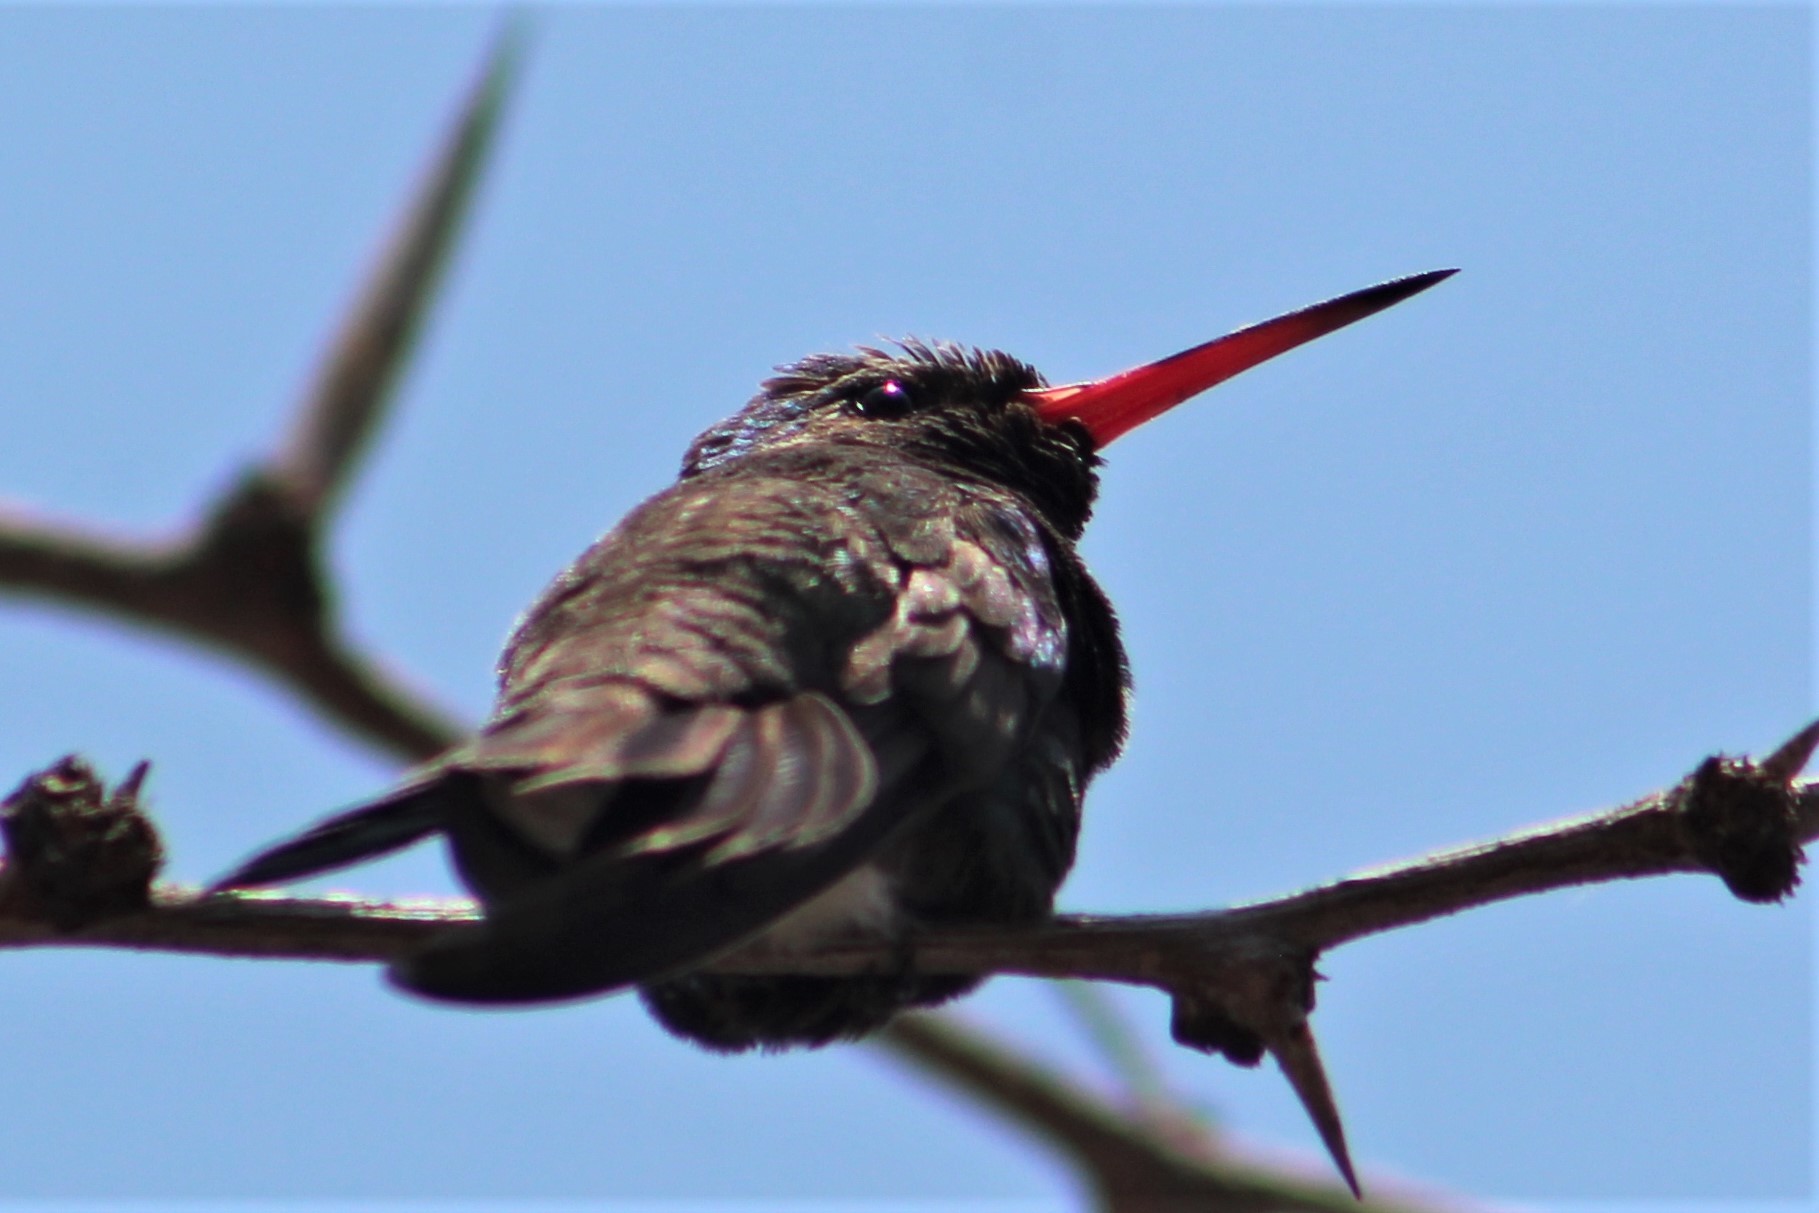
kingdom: Animalia
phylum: Chordata
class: Aves
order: Apodiformes
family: Trochilidae
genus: Cynanthus
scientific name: Cynanthus latirostris
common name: Broad-billed hummingbird
